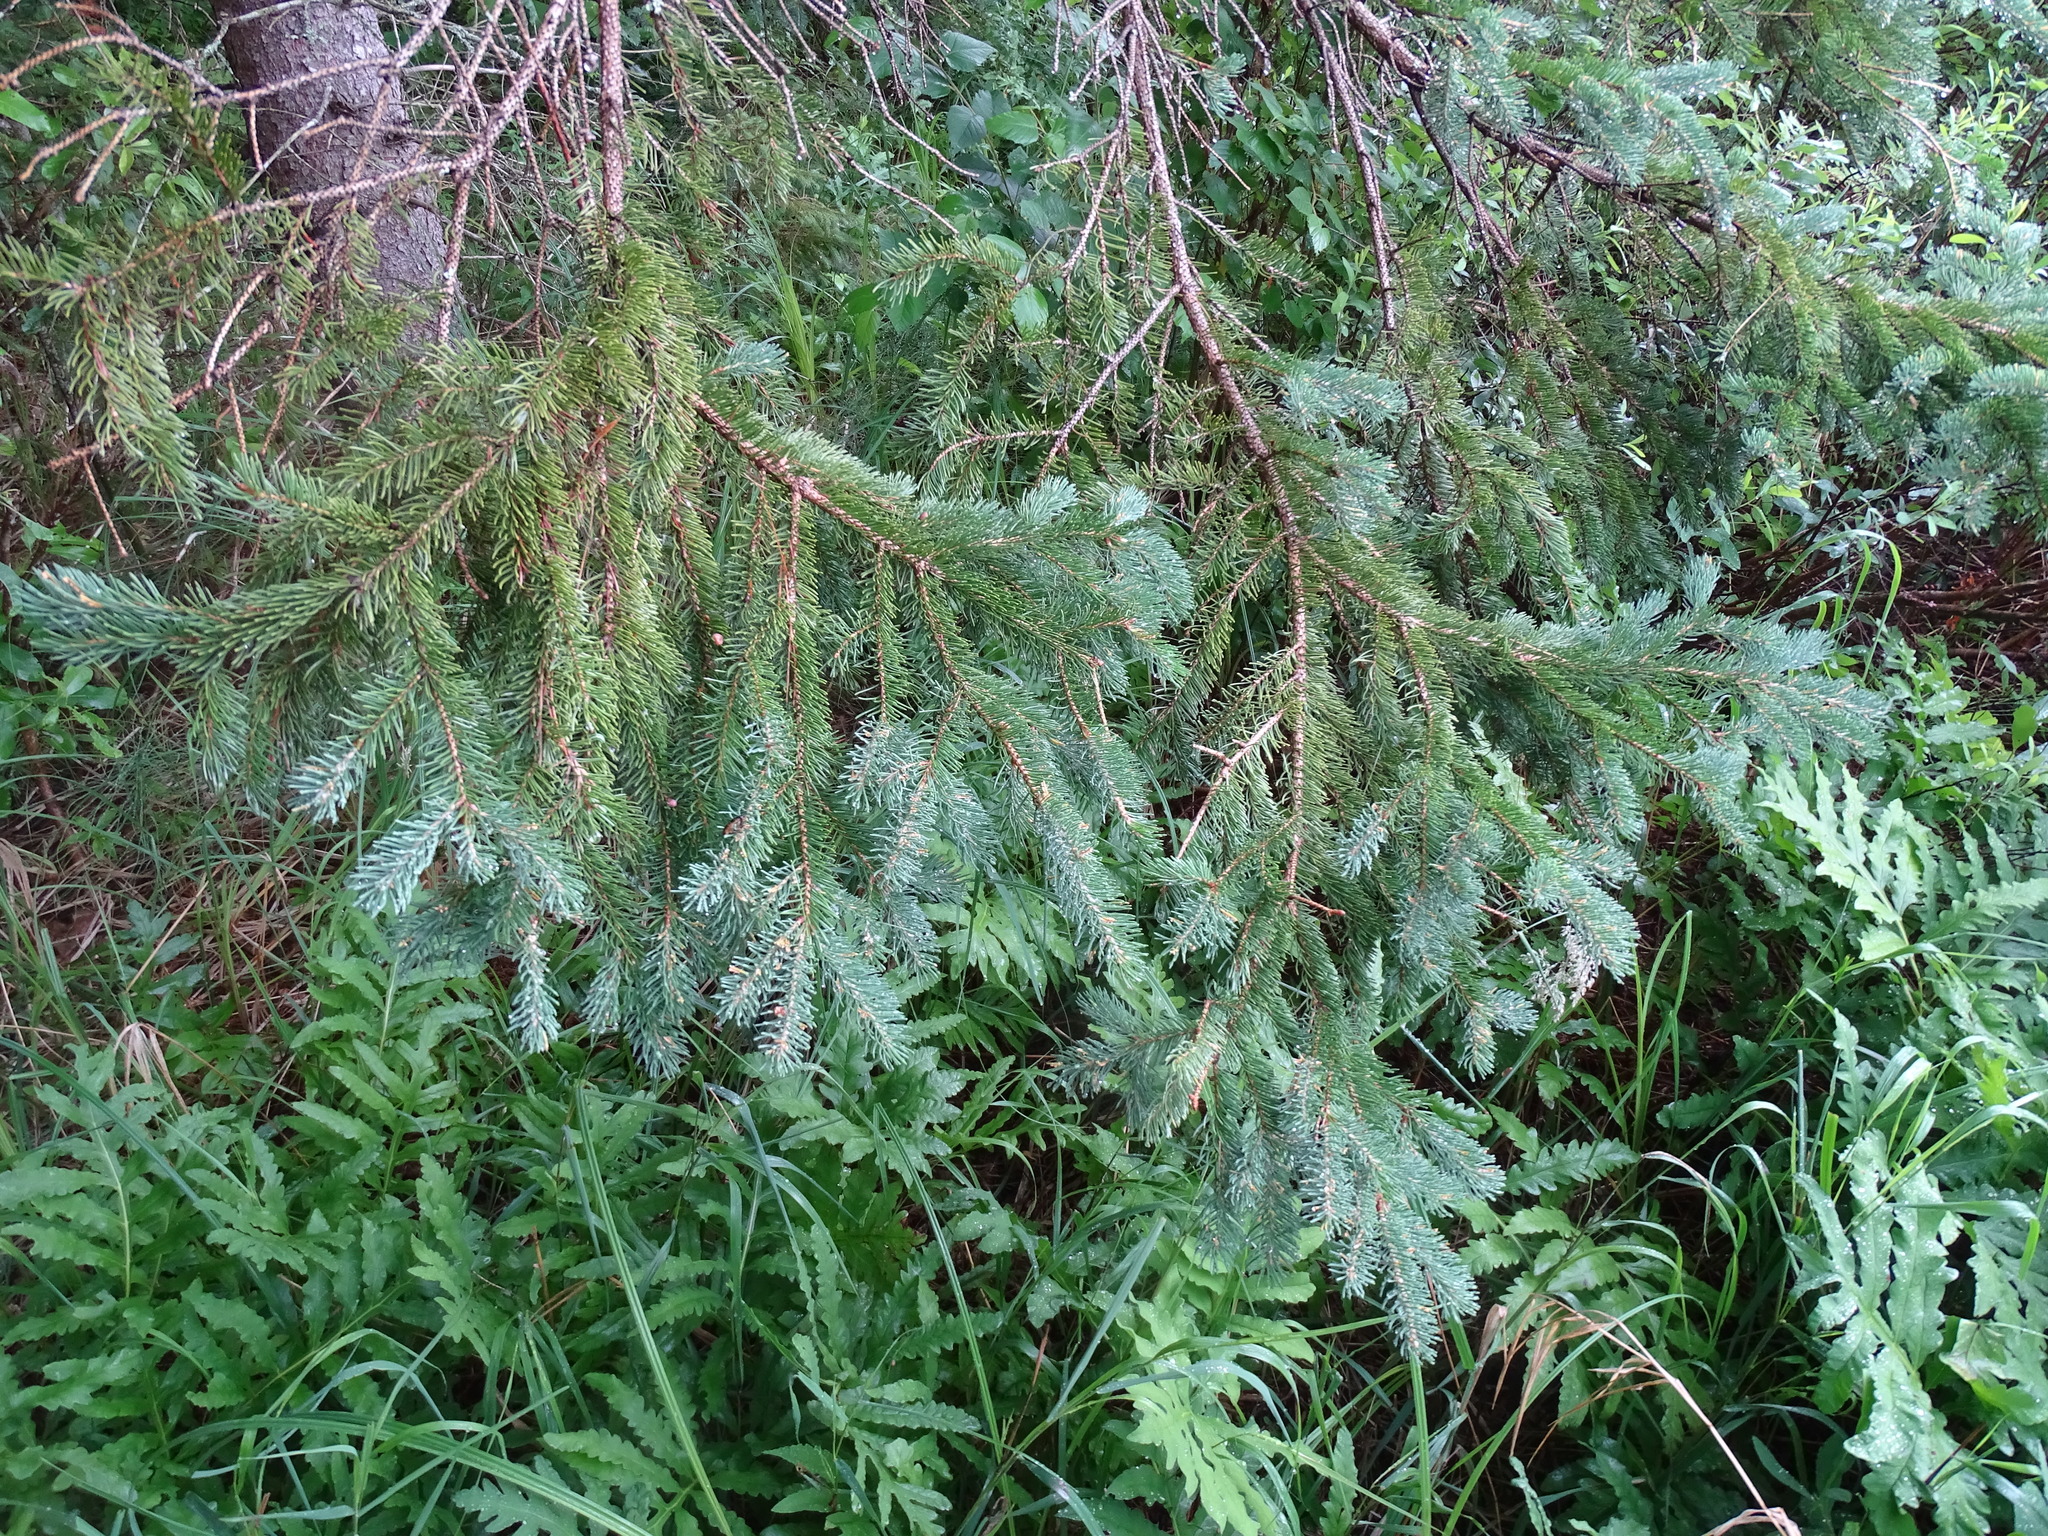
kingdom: Plantae
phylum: Tracheophyta
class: Pinopsida
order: Pinales
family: Pinaceae
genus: Picea
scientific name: Picea glauca
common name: White spruce
